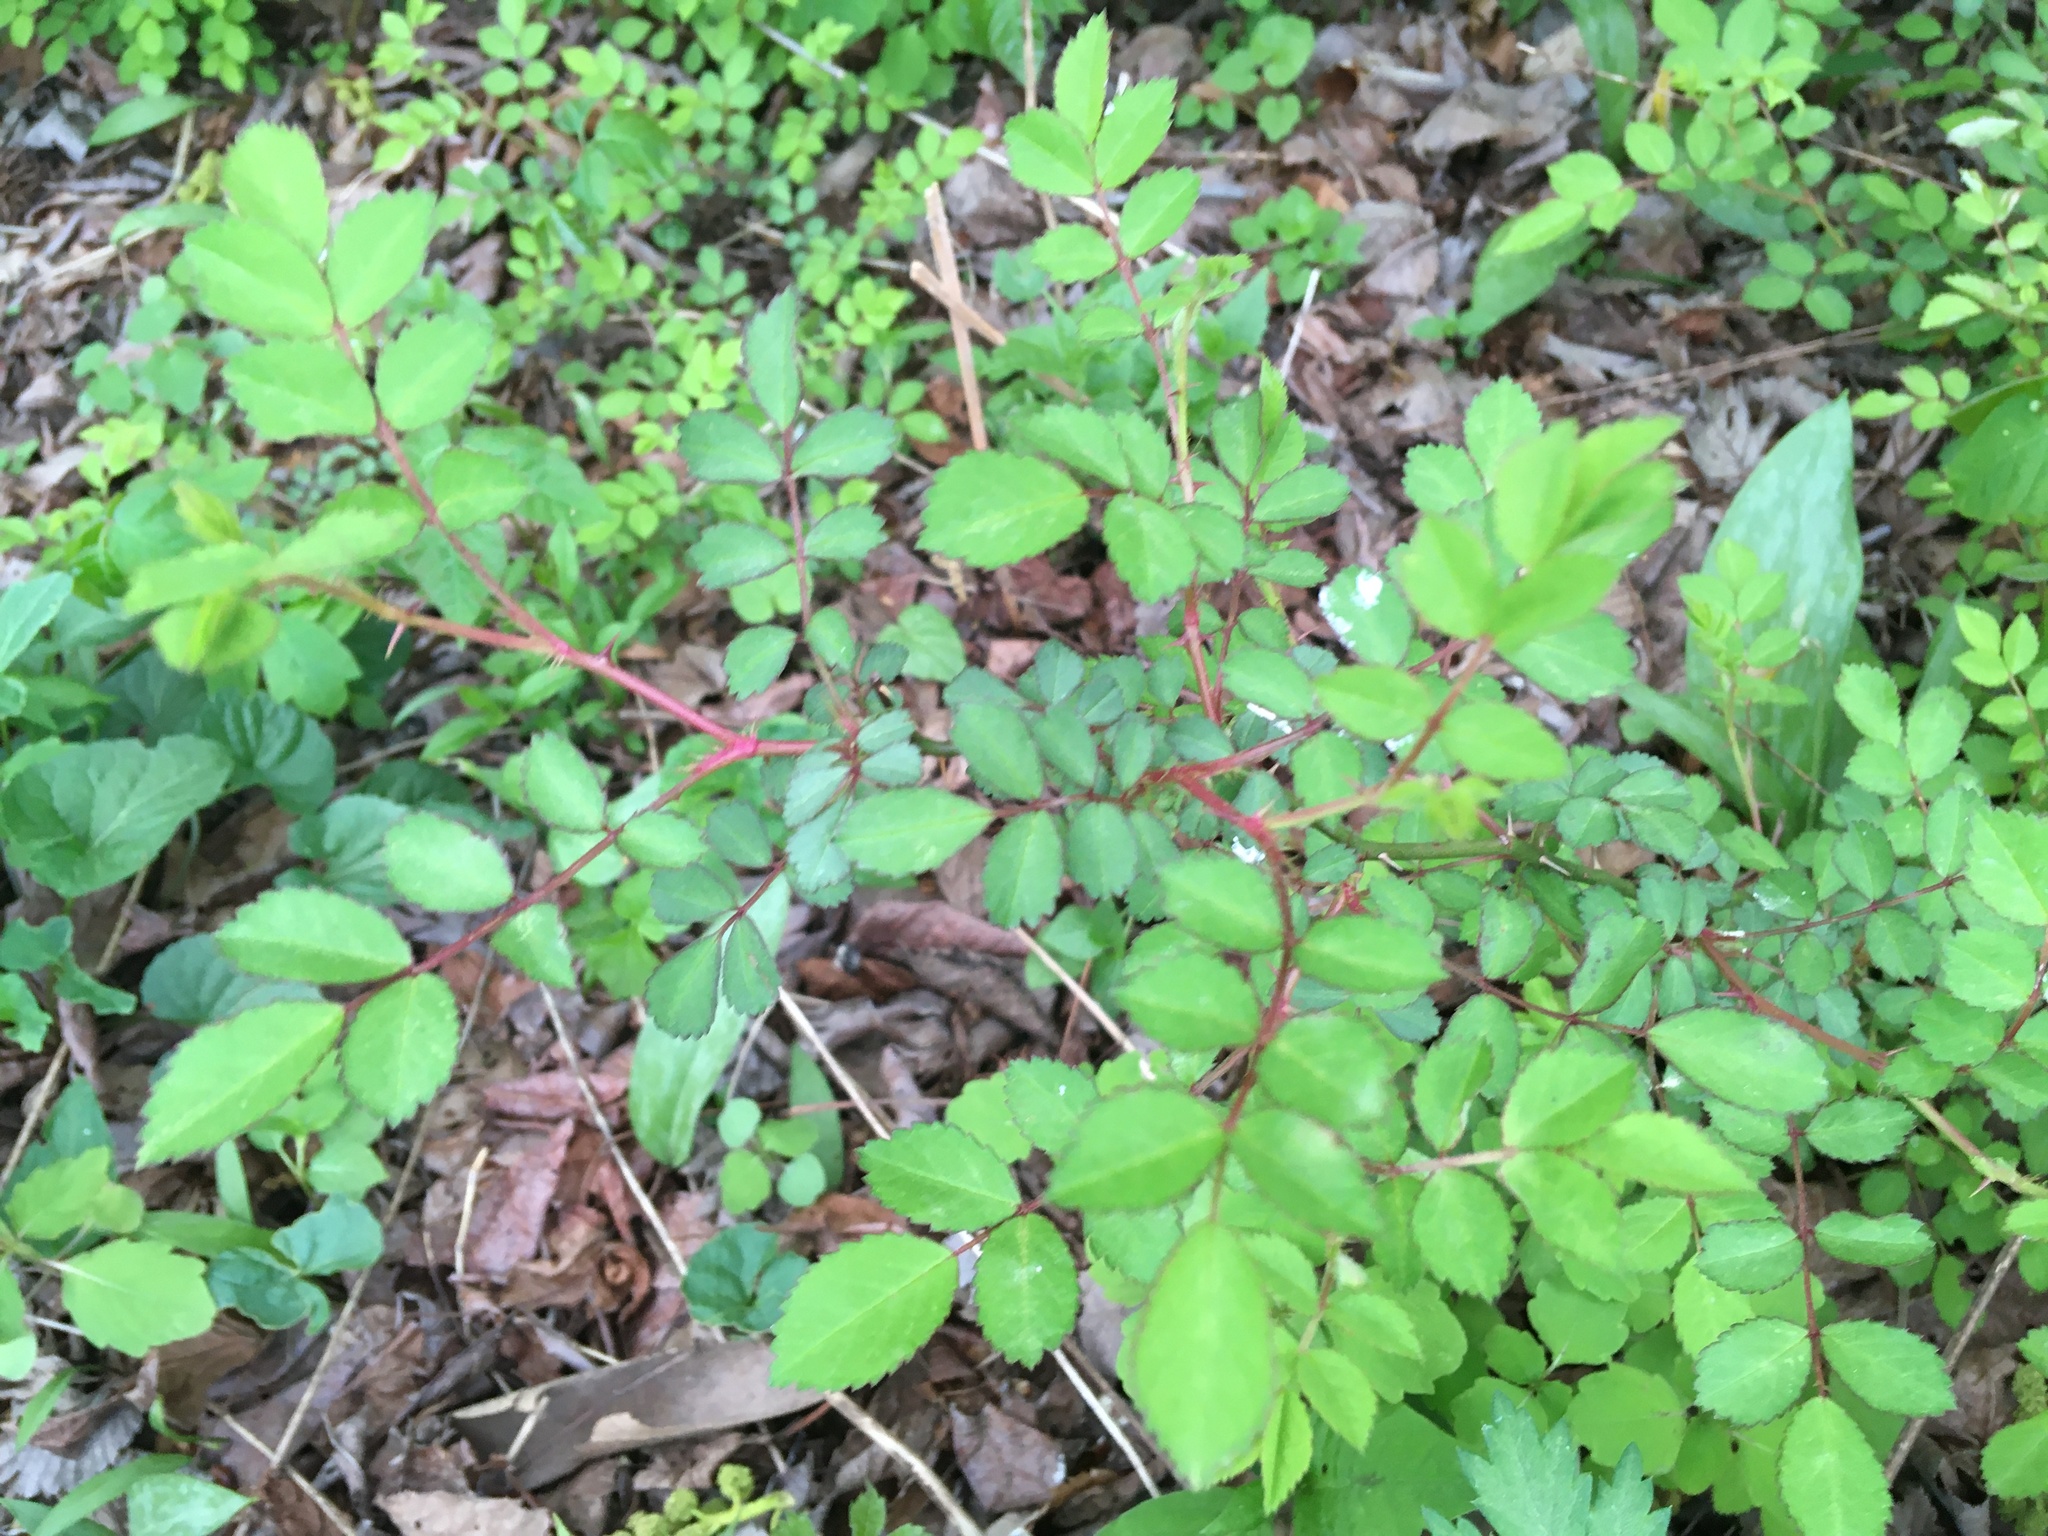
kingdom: Plantae
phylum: Tracheophyta
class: Magnoliopsida
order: Rosales
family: Rosaceae
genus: Rosa
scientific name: Rosa multiflora
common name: Multiflora rose
